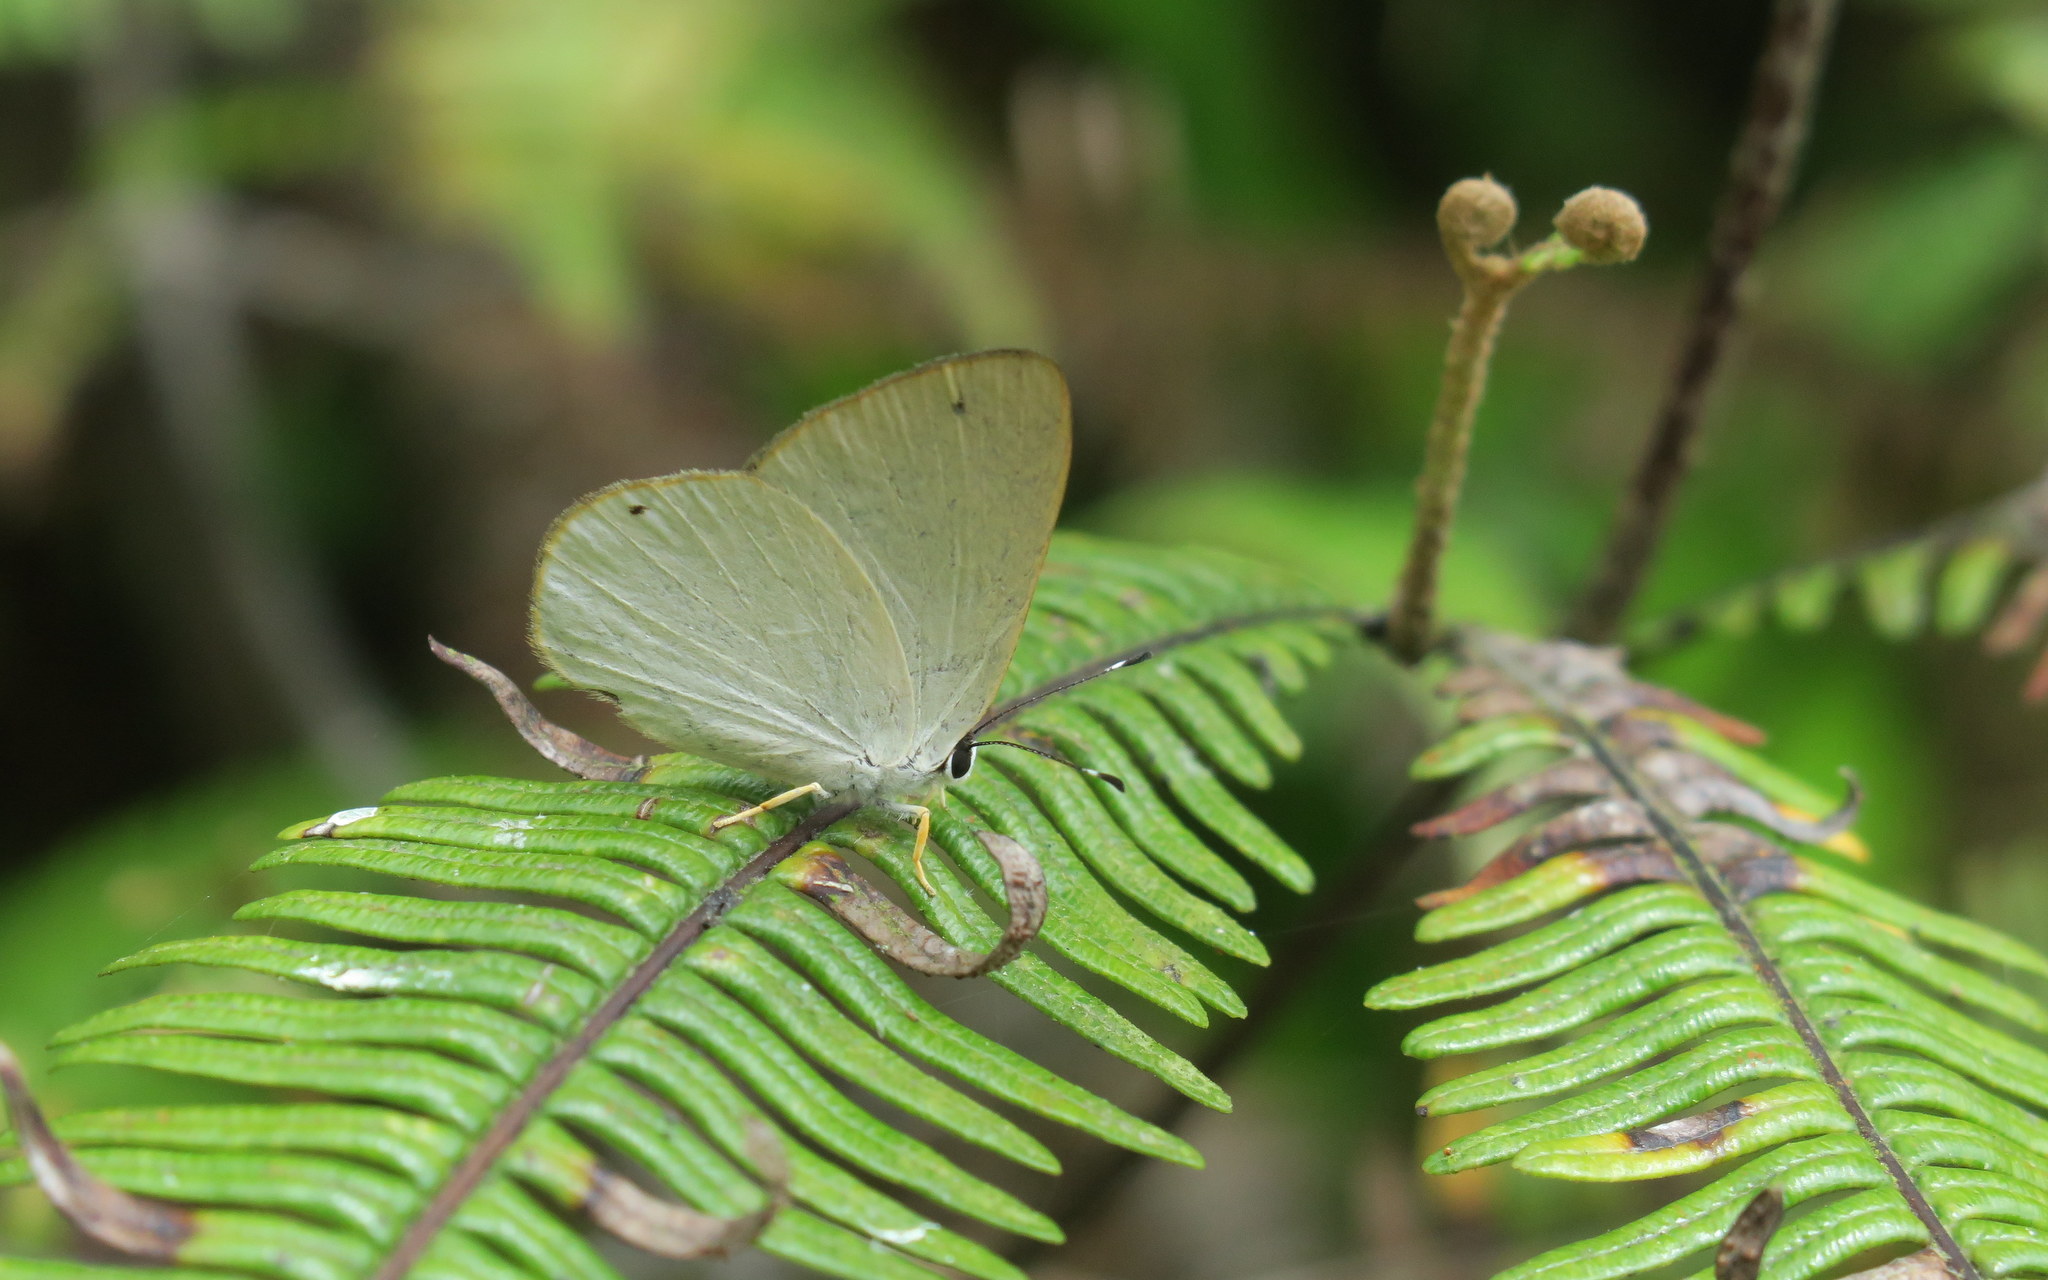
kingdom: Animalia
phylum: Arthropoda
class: Insecta
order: Lepidoptera
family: Riodinidae
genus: Pelolasia
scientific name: Pelolasia
